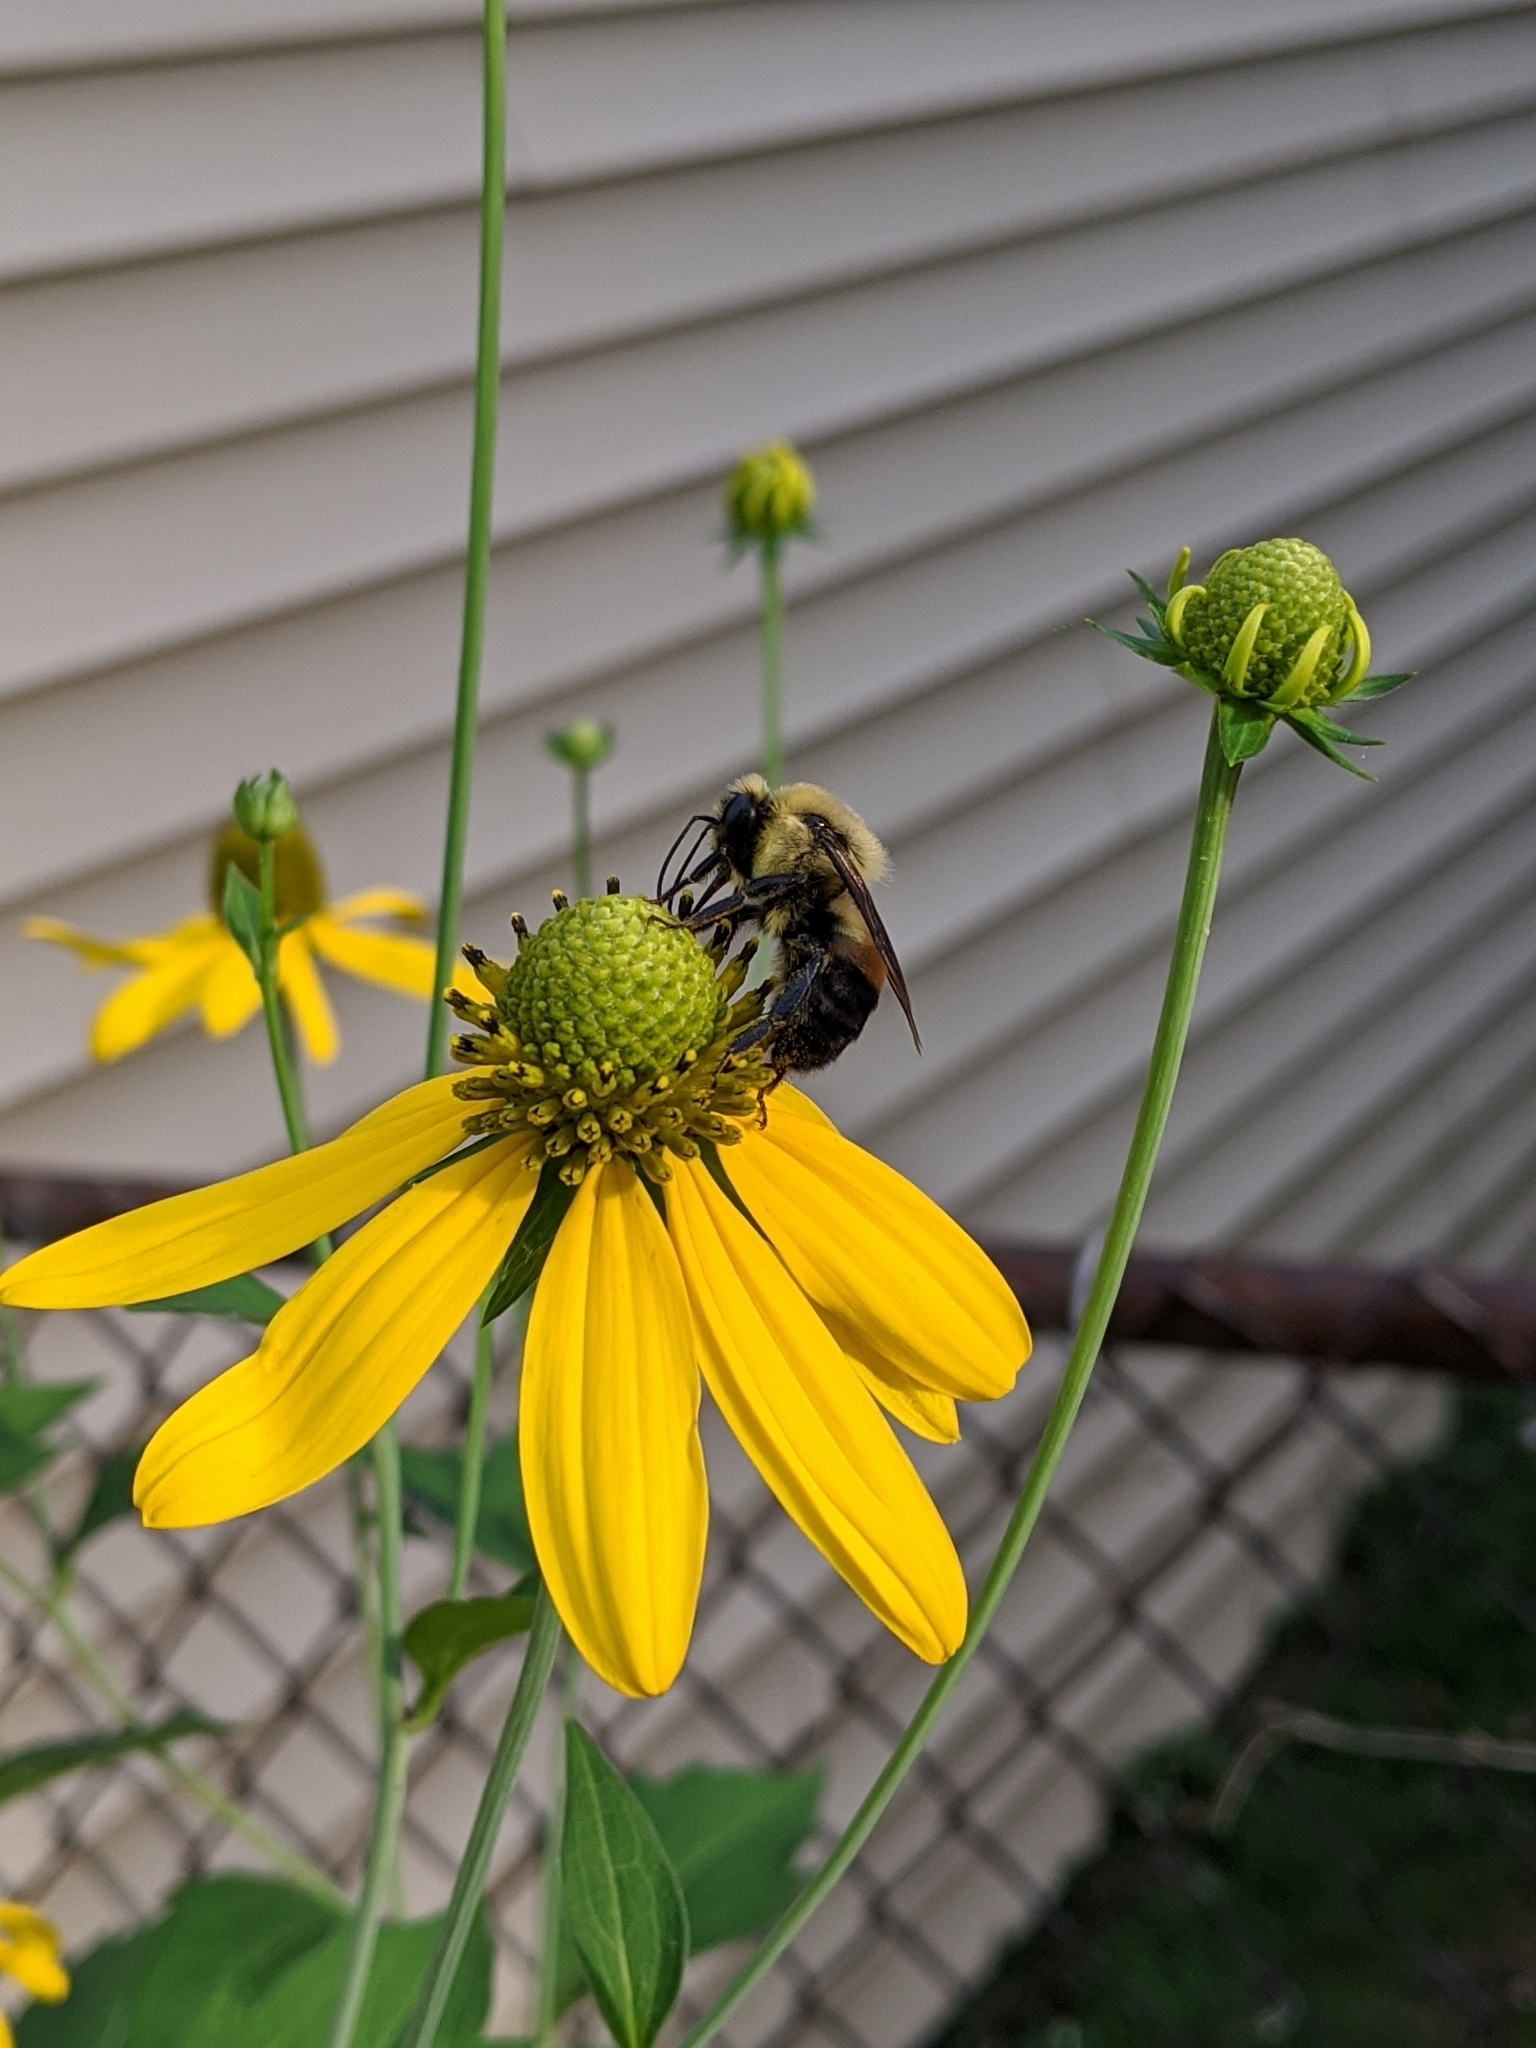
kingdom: Animalia
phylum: Arthropoda
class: Insecta
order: Hymenoptera
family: Apidae
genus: Bombus
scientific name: Bombus griseocollis
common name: Brown-belted bumble bee
